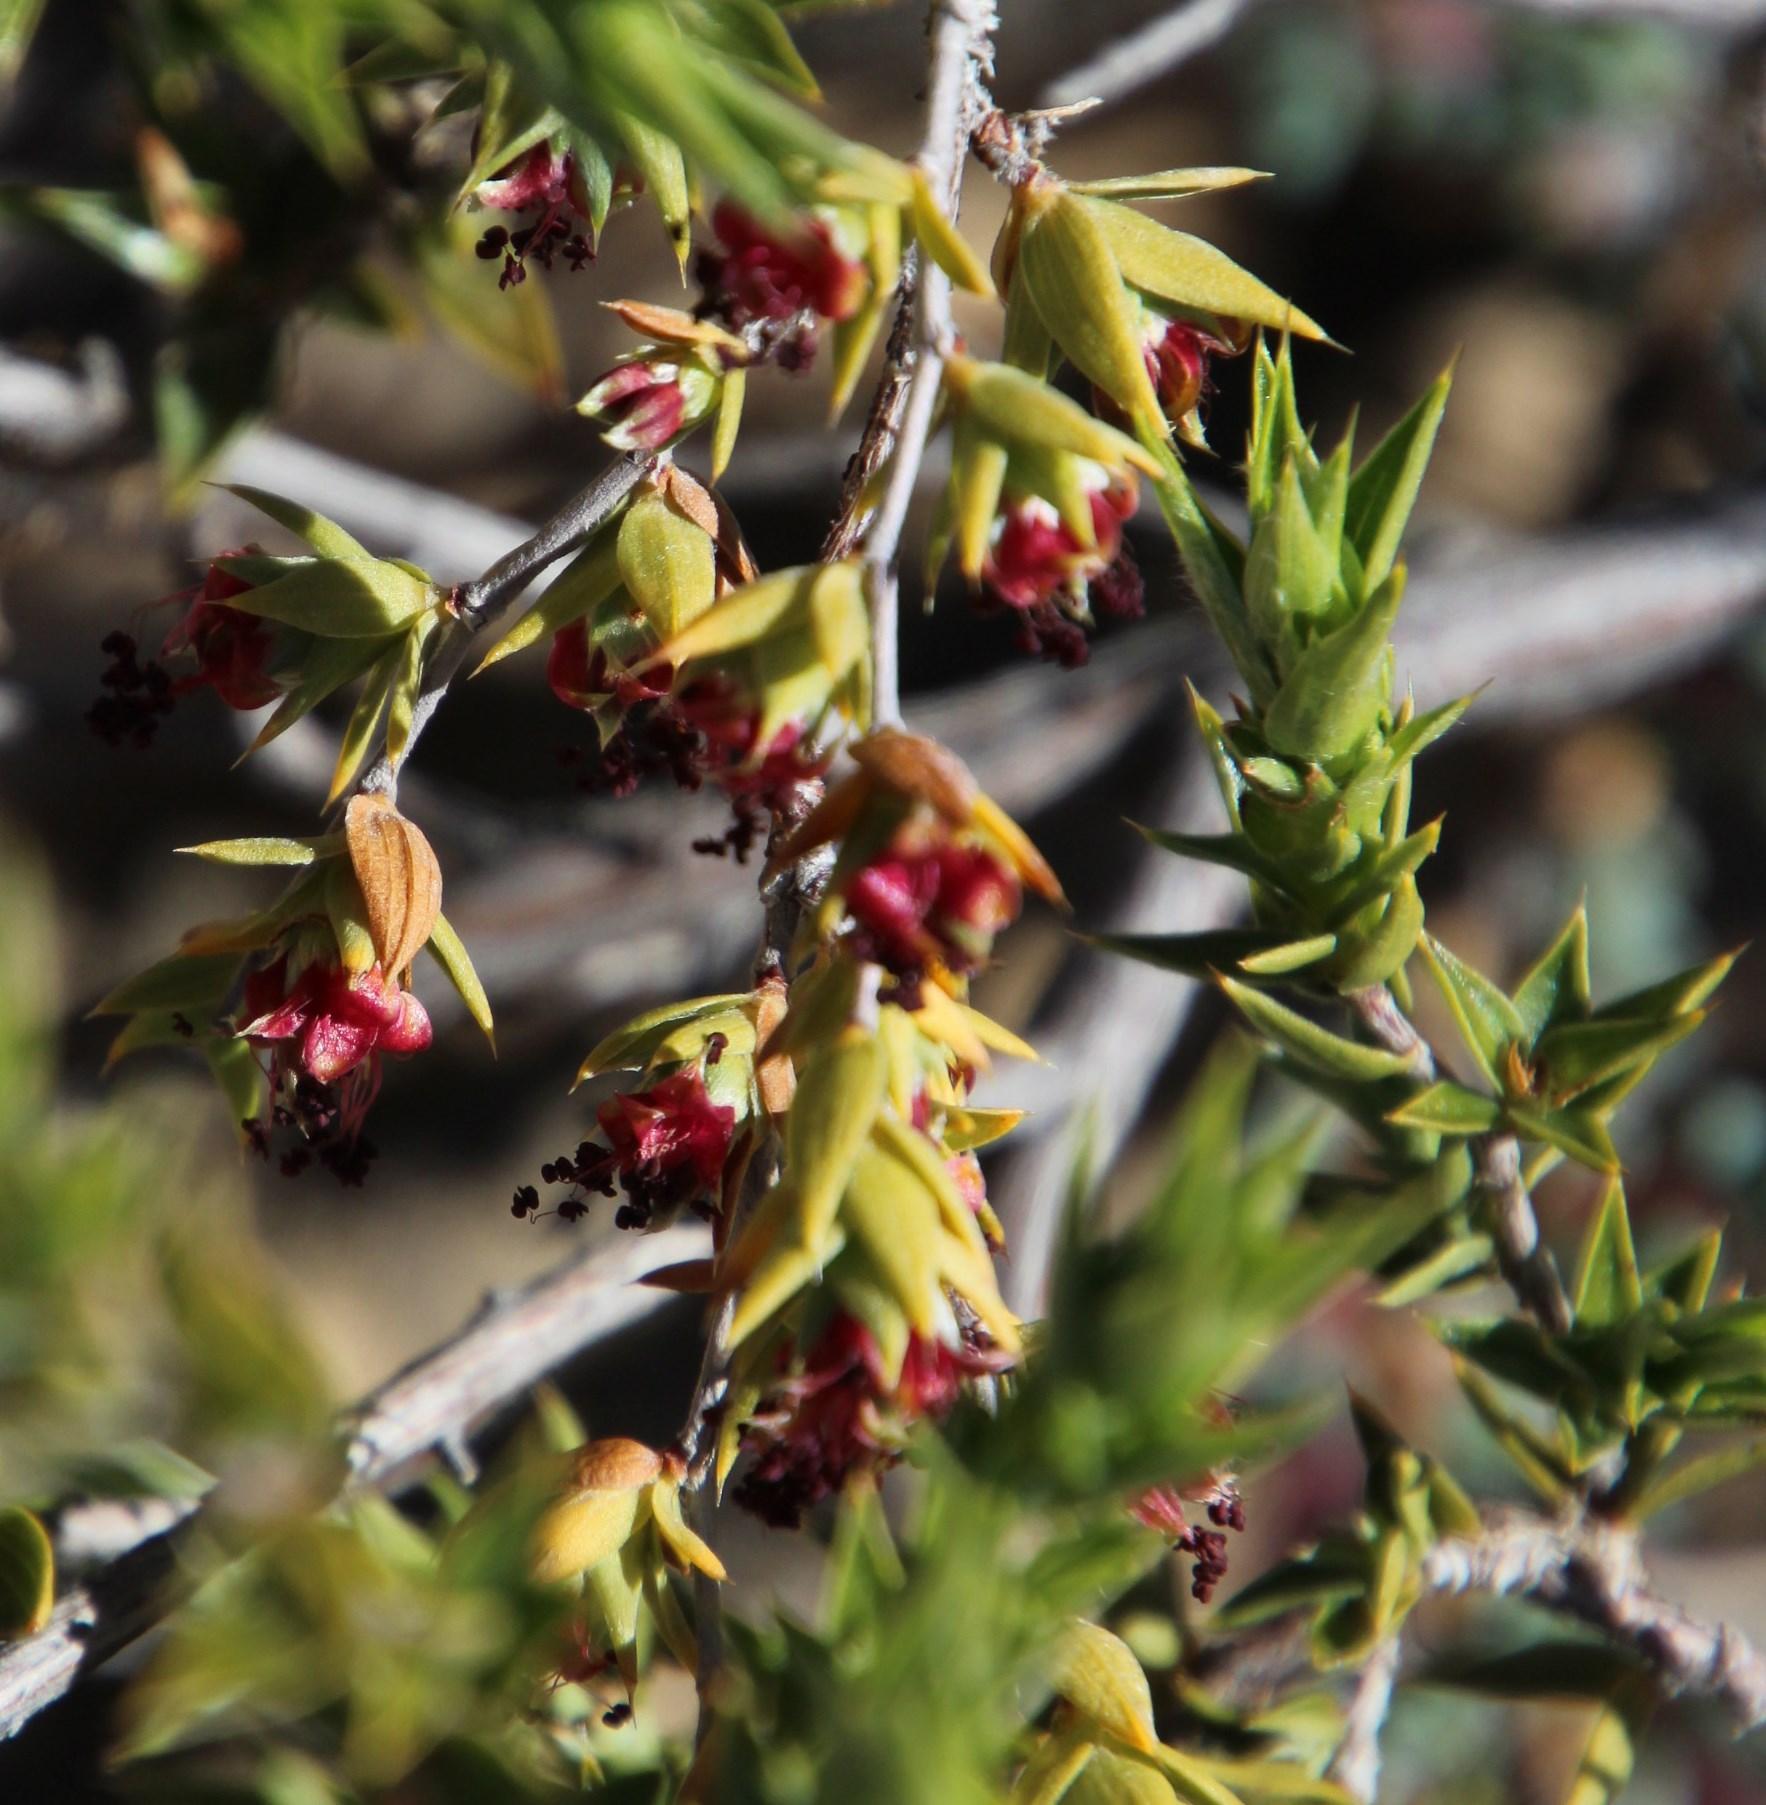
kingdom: Plantae
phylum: Tracheophyta
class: Magnoliopsida
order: Rosales
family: Rosaceae
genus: Cliffortia
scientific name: Cliffortia ruscifolia
